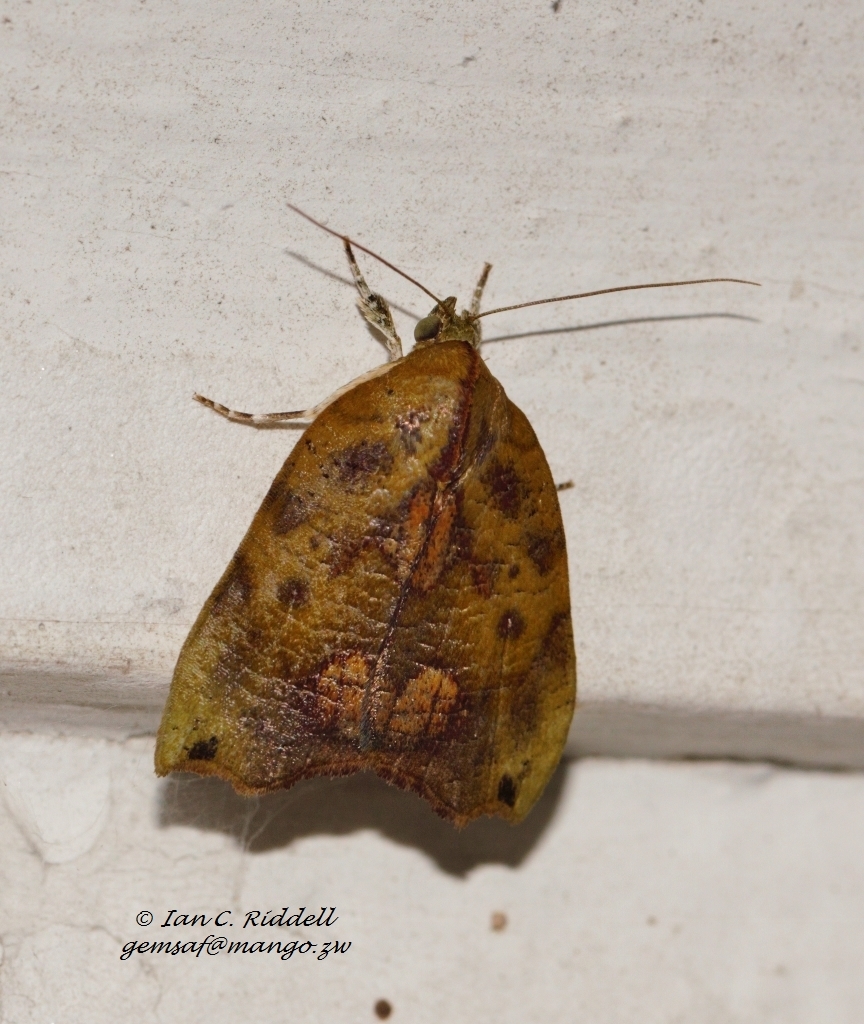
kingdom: Animalia
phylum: Arthropoda
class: Insecta
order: Lepidoptera
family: Nolidae
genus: Acripia
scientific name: Acripia subolivacea
